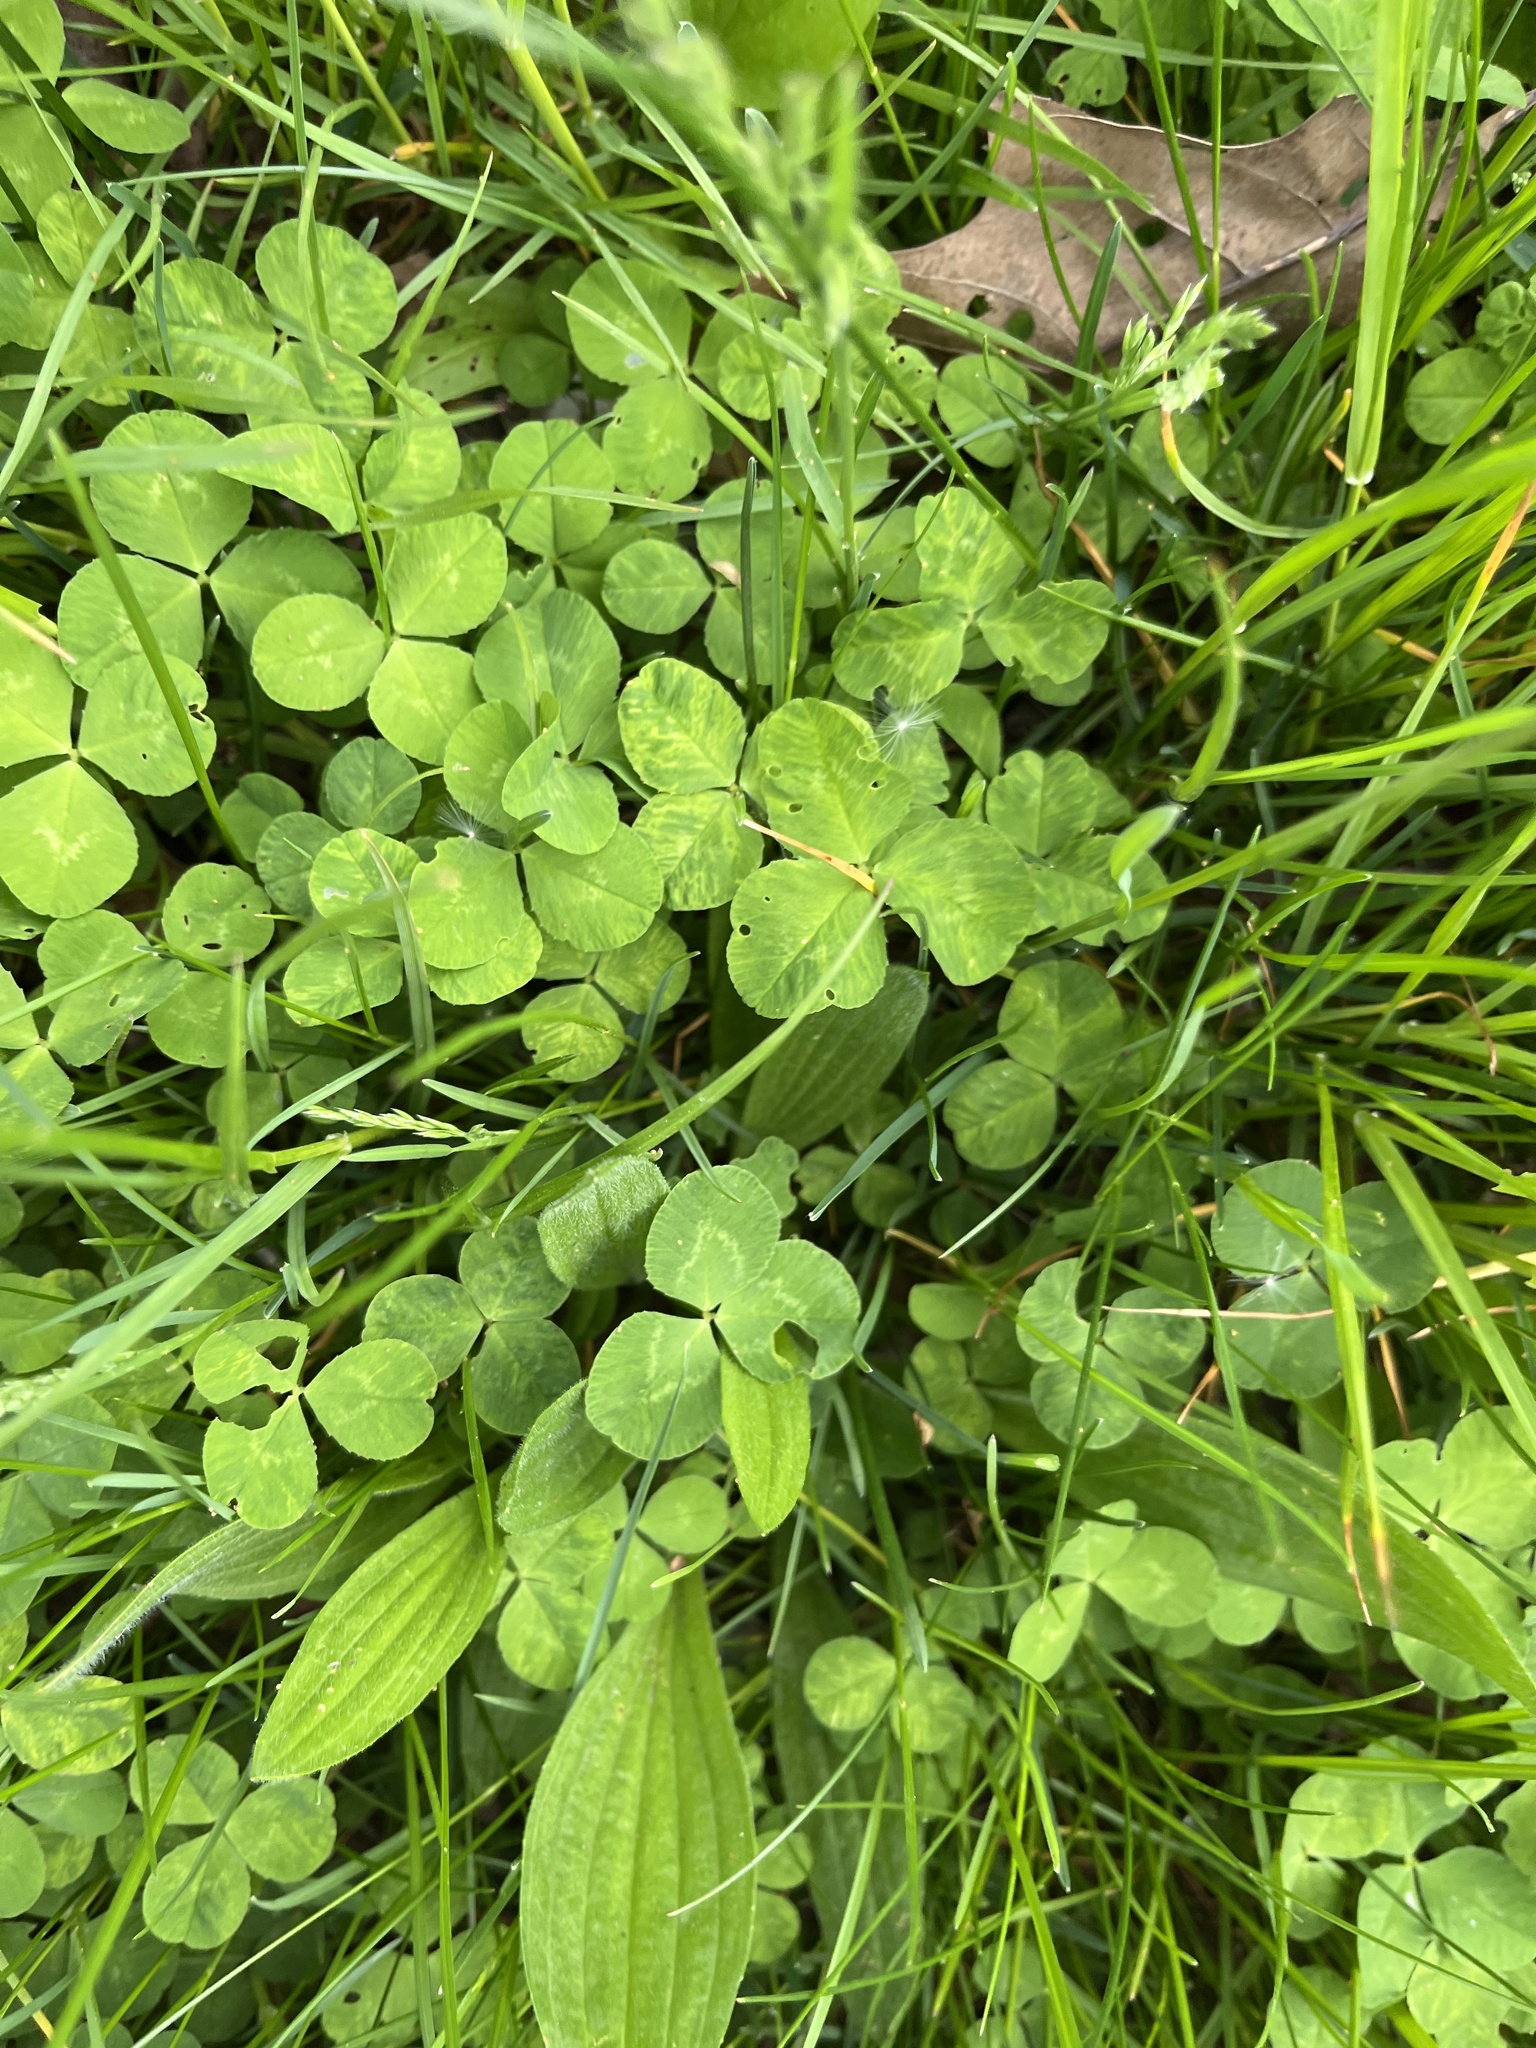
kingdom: Plantae
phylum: Tracheophyta
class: Magnoliopsida
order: Fabales
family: Fabaceae
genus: Trifolium
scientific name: Trifolium repens
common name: White clover
